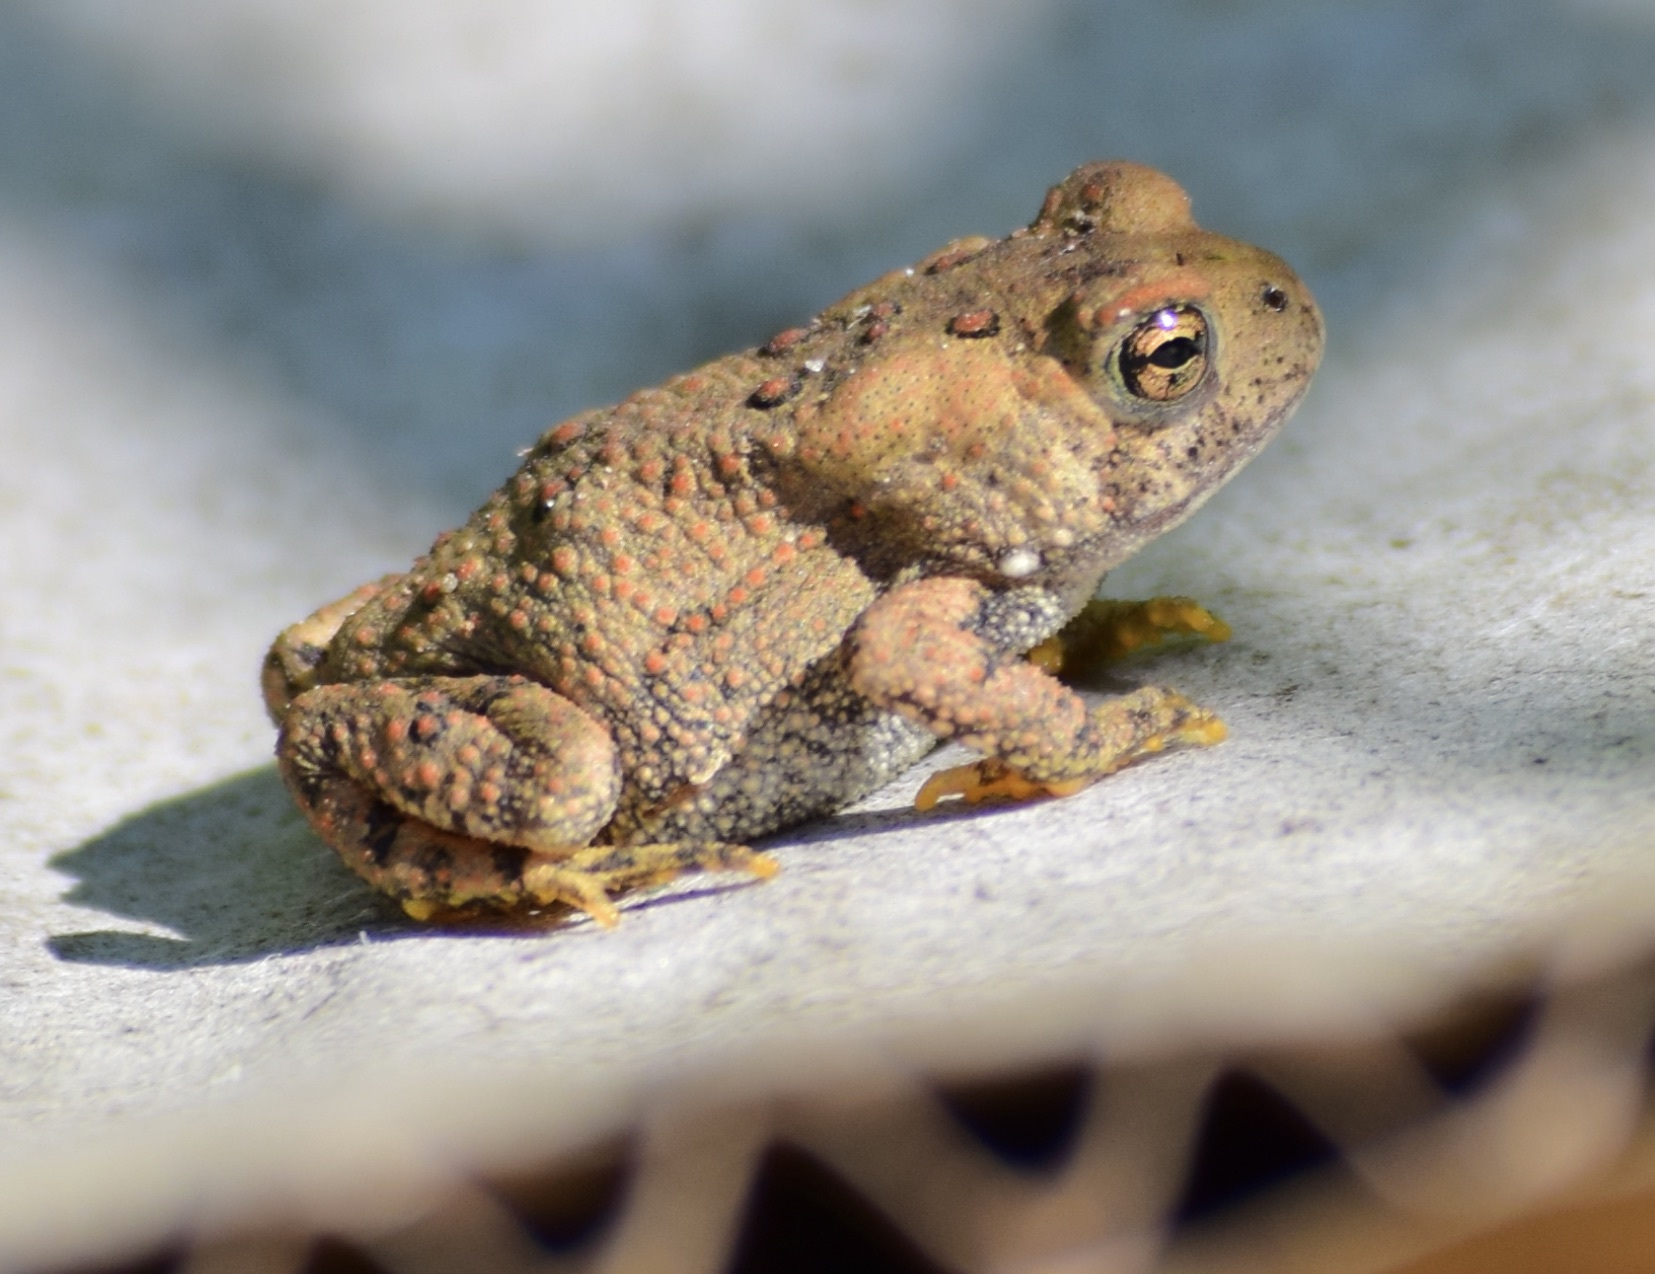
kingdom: Animalia
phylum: Chordata
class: Amphibia
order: Anura
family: Bufonidae
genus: Anaxyrus
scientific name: Anaxyrus americanus
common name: American toad
